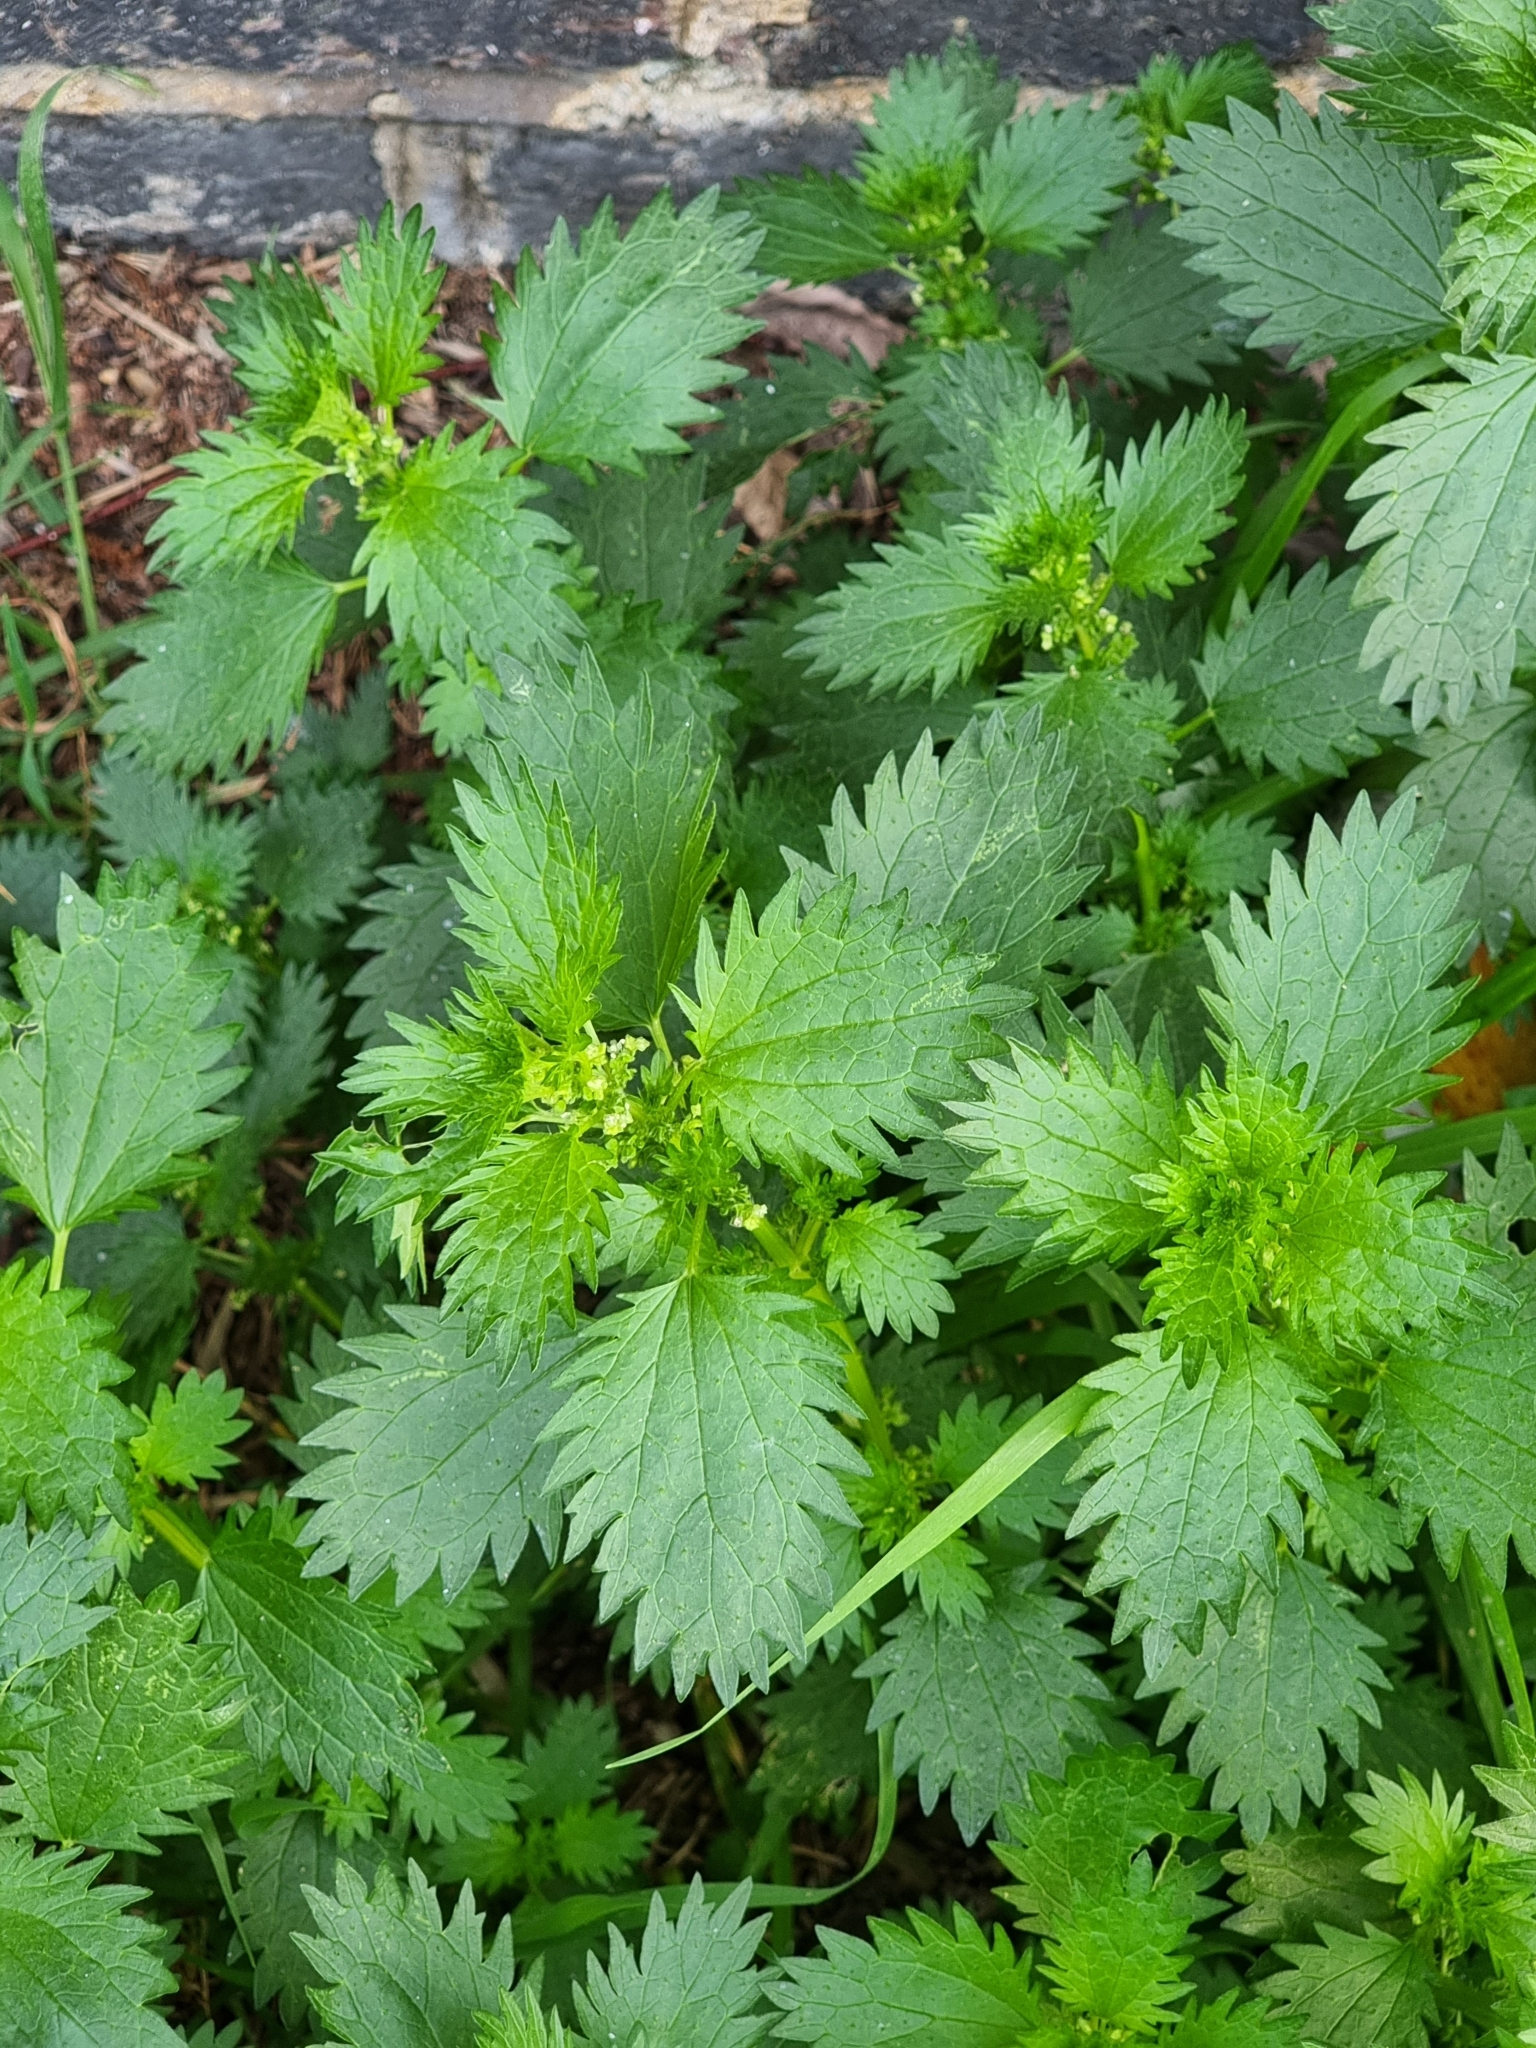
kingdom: Plantae
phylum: Tracheophyta
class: Magnoliopsida
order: Rosales
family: Urticaceae
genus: Urtica
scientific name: Urtica urens
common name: Dwarf nettle
